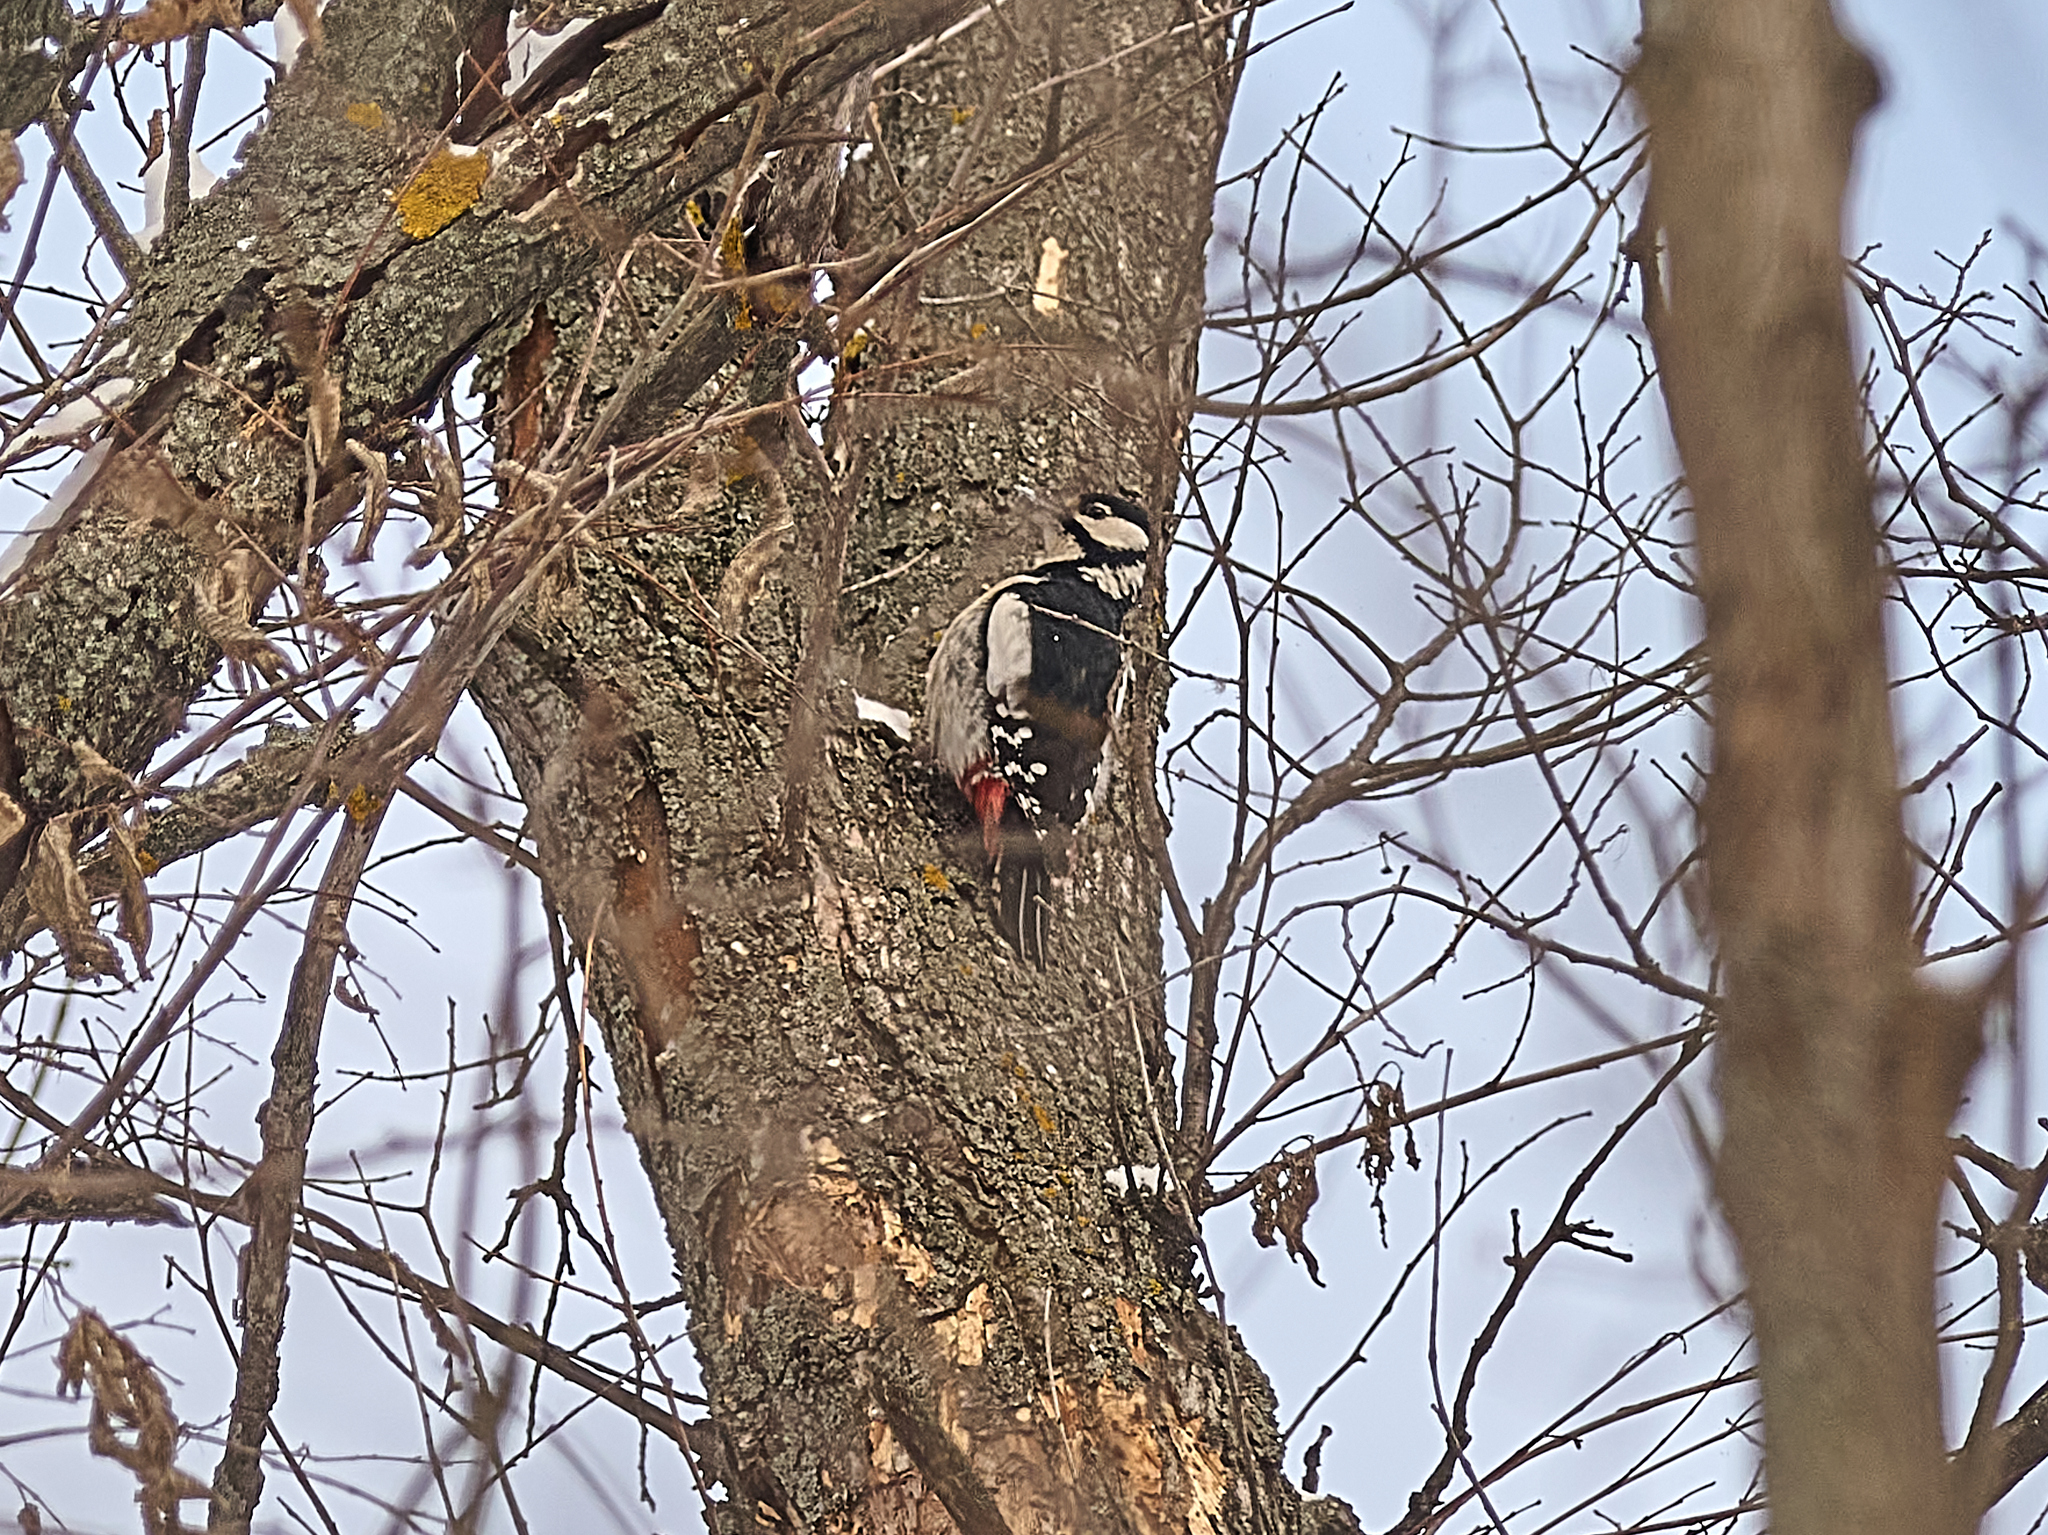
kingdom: Animalia
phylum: Chordata
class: Aves
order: Piciformes
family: Picidae
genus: Dendrocopos
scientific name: Dendrocopos major
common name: Great spotted woodpecker
